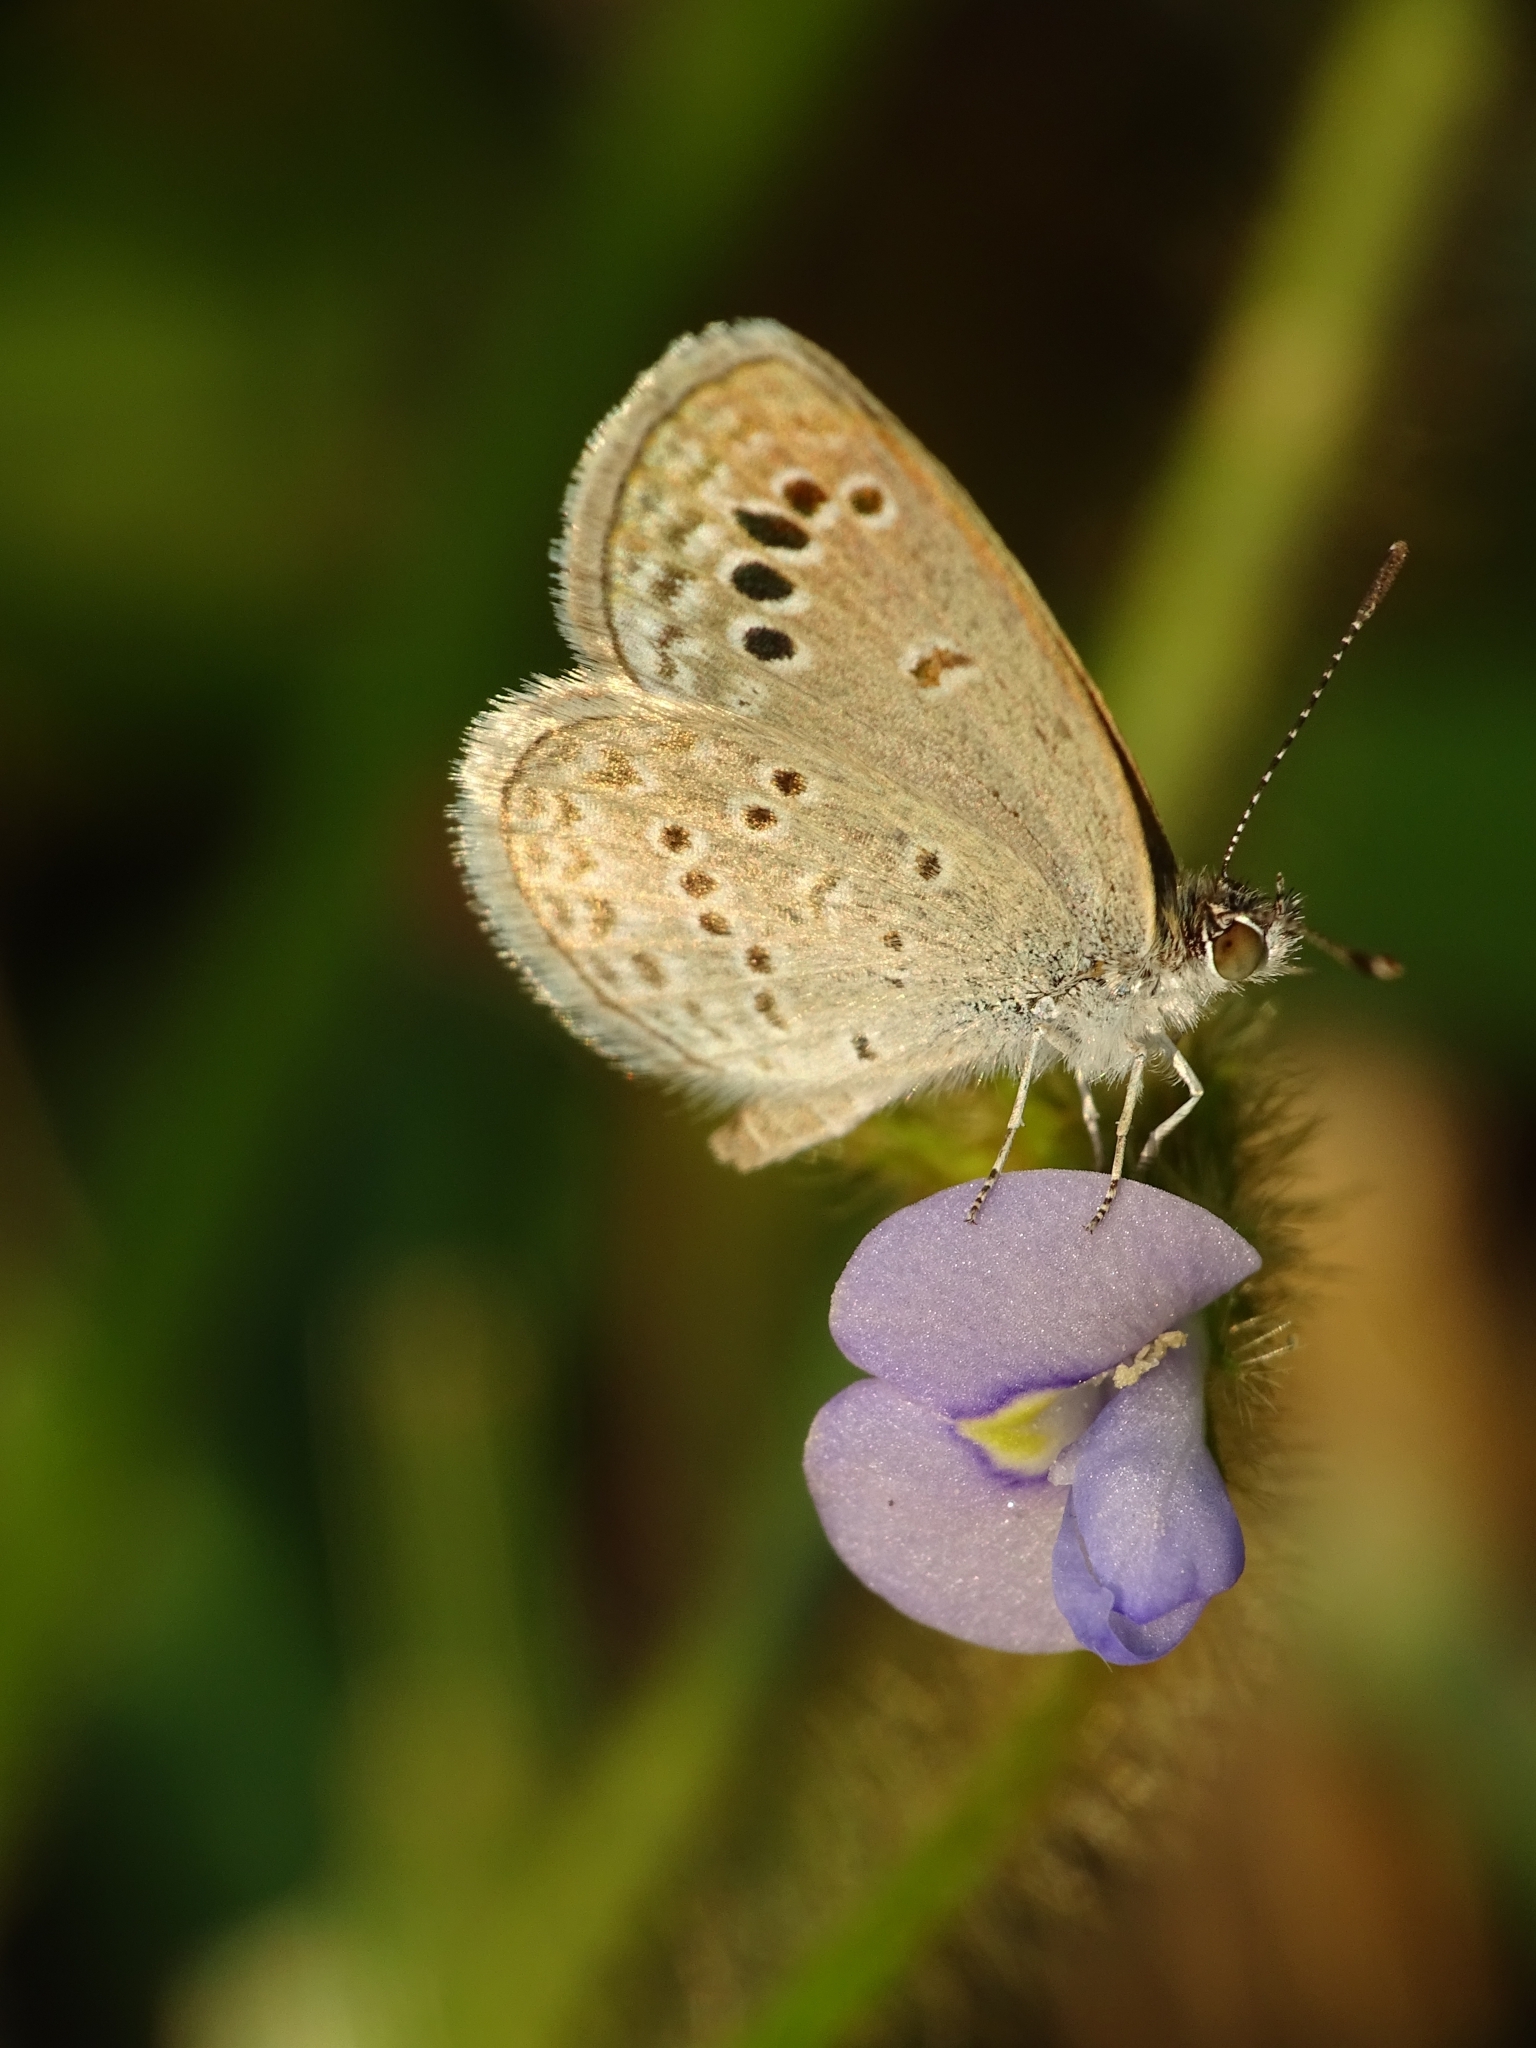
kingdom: Animalia
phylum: Arthropoda
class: Insecta
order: Lepidoptera
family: Lycaenidae
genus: Zizina
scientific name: Zizina otis
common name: Lesser grass blue
